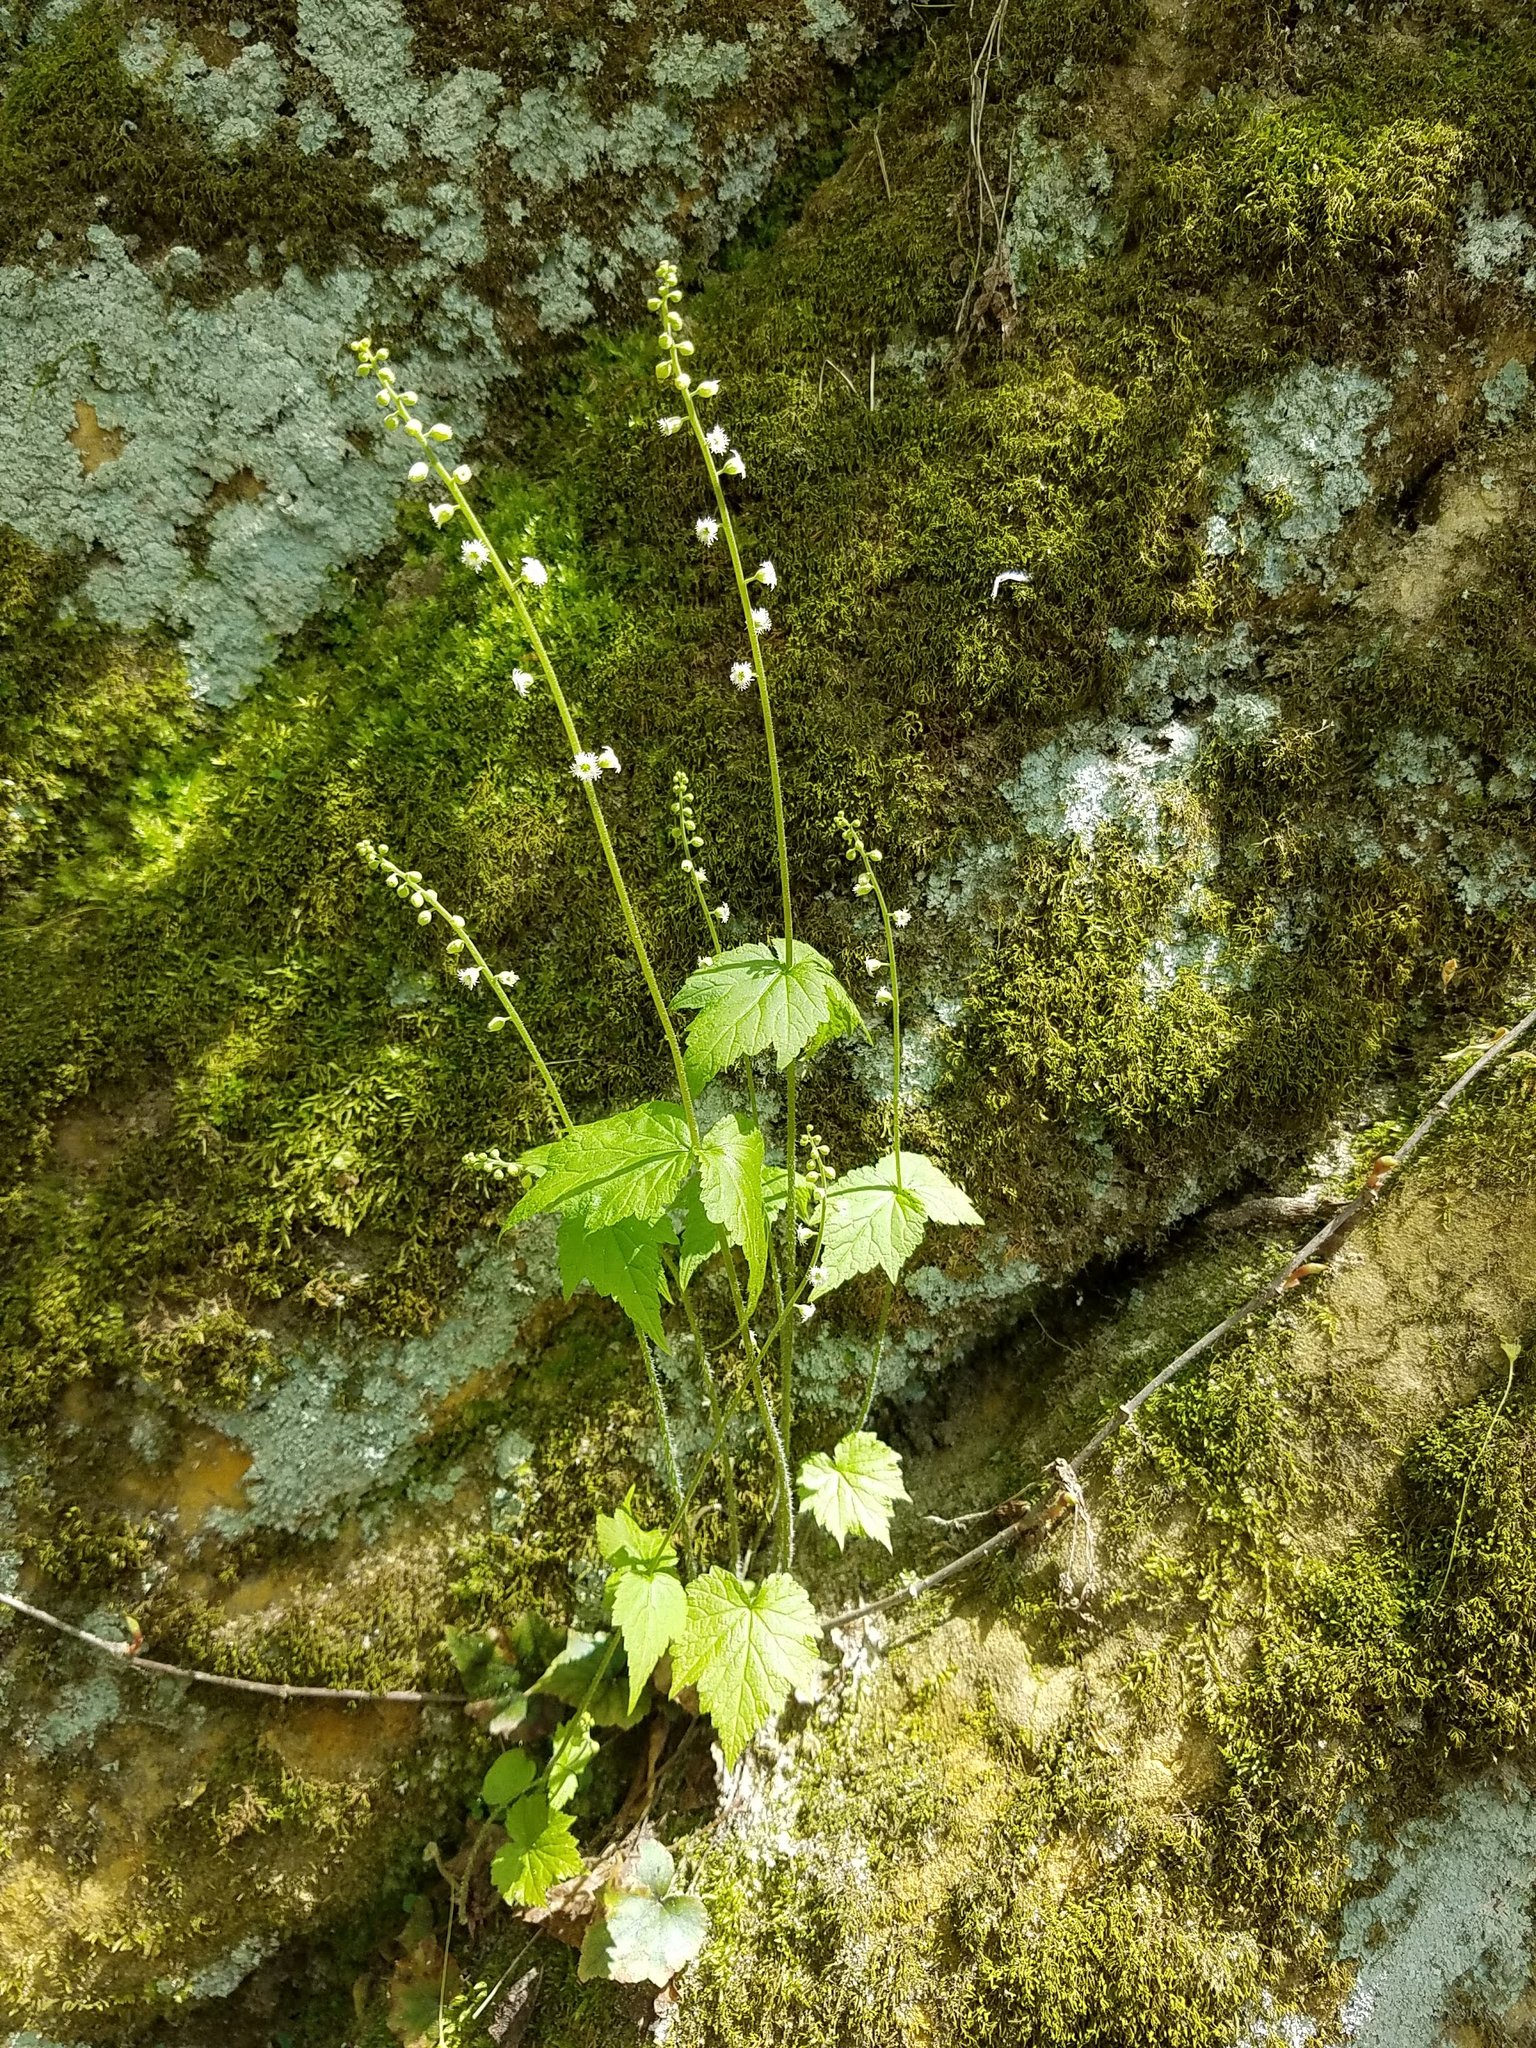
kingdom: Plantae
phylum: Tracheophyta
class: Magnoliopsida
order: Saxifragales
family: Saxifragaceae
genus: Mitella
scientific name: Mitella diphylla
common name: Coolwort
